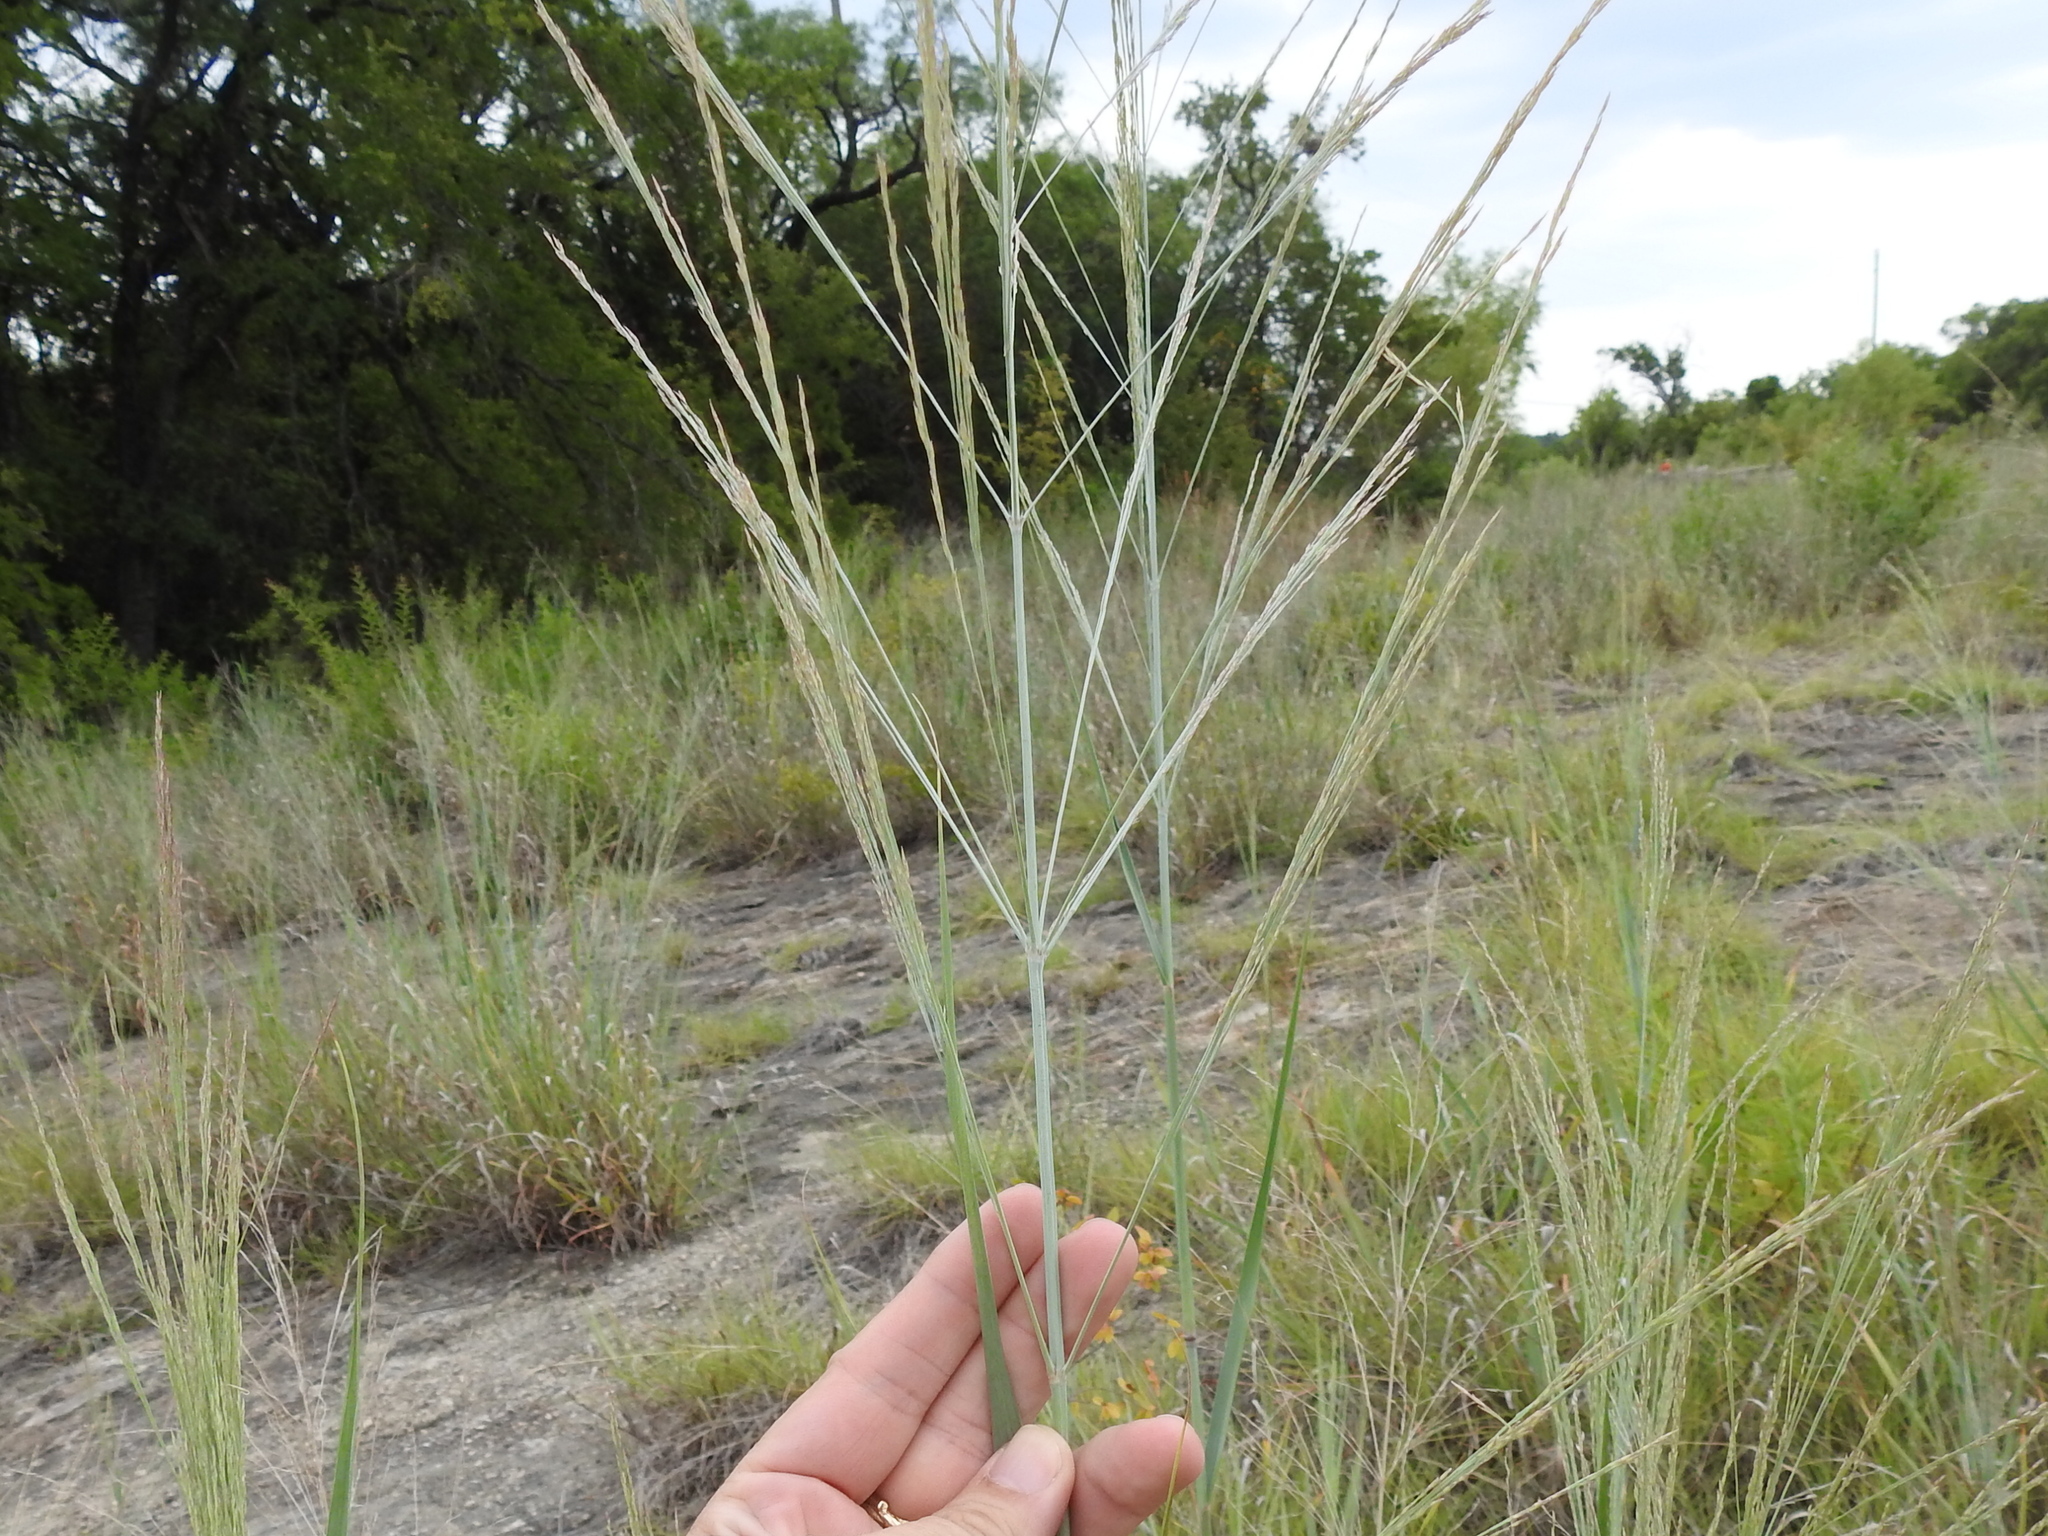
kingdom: Plantae
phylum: Tracheophyta
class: Liliopsida
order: Poales
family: Poaceae
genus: Panicum
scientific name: Panicum virgatum
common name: Switchgrass
